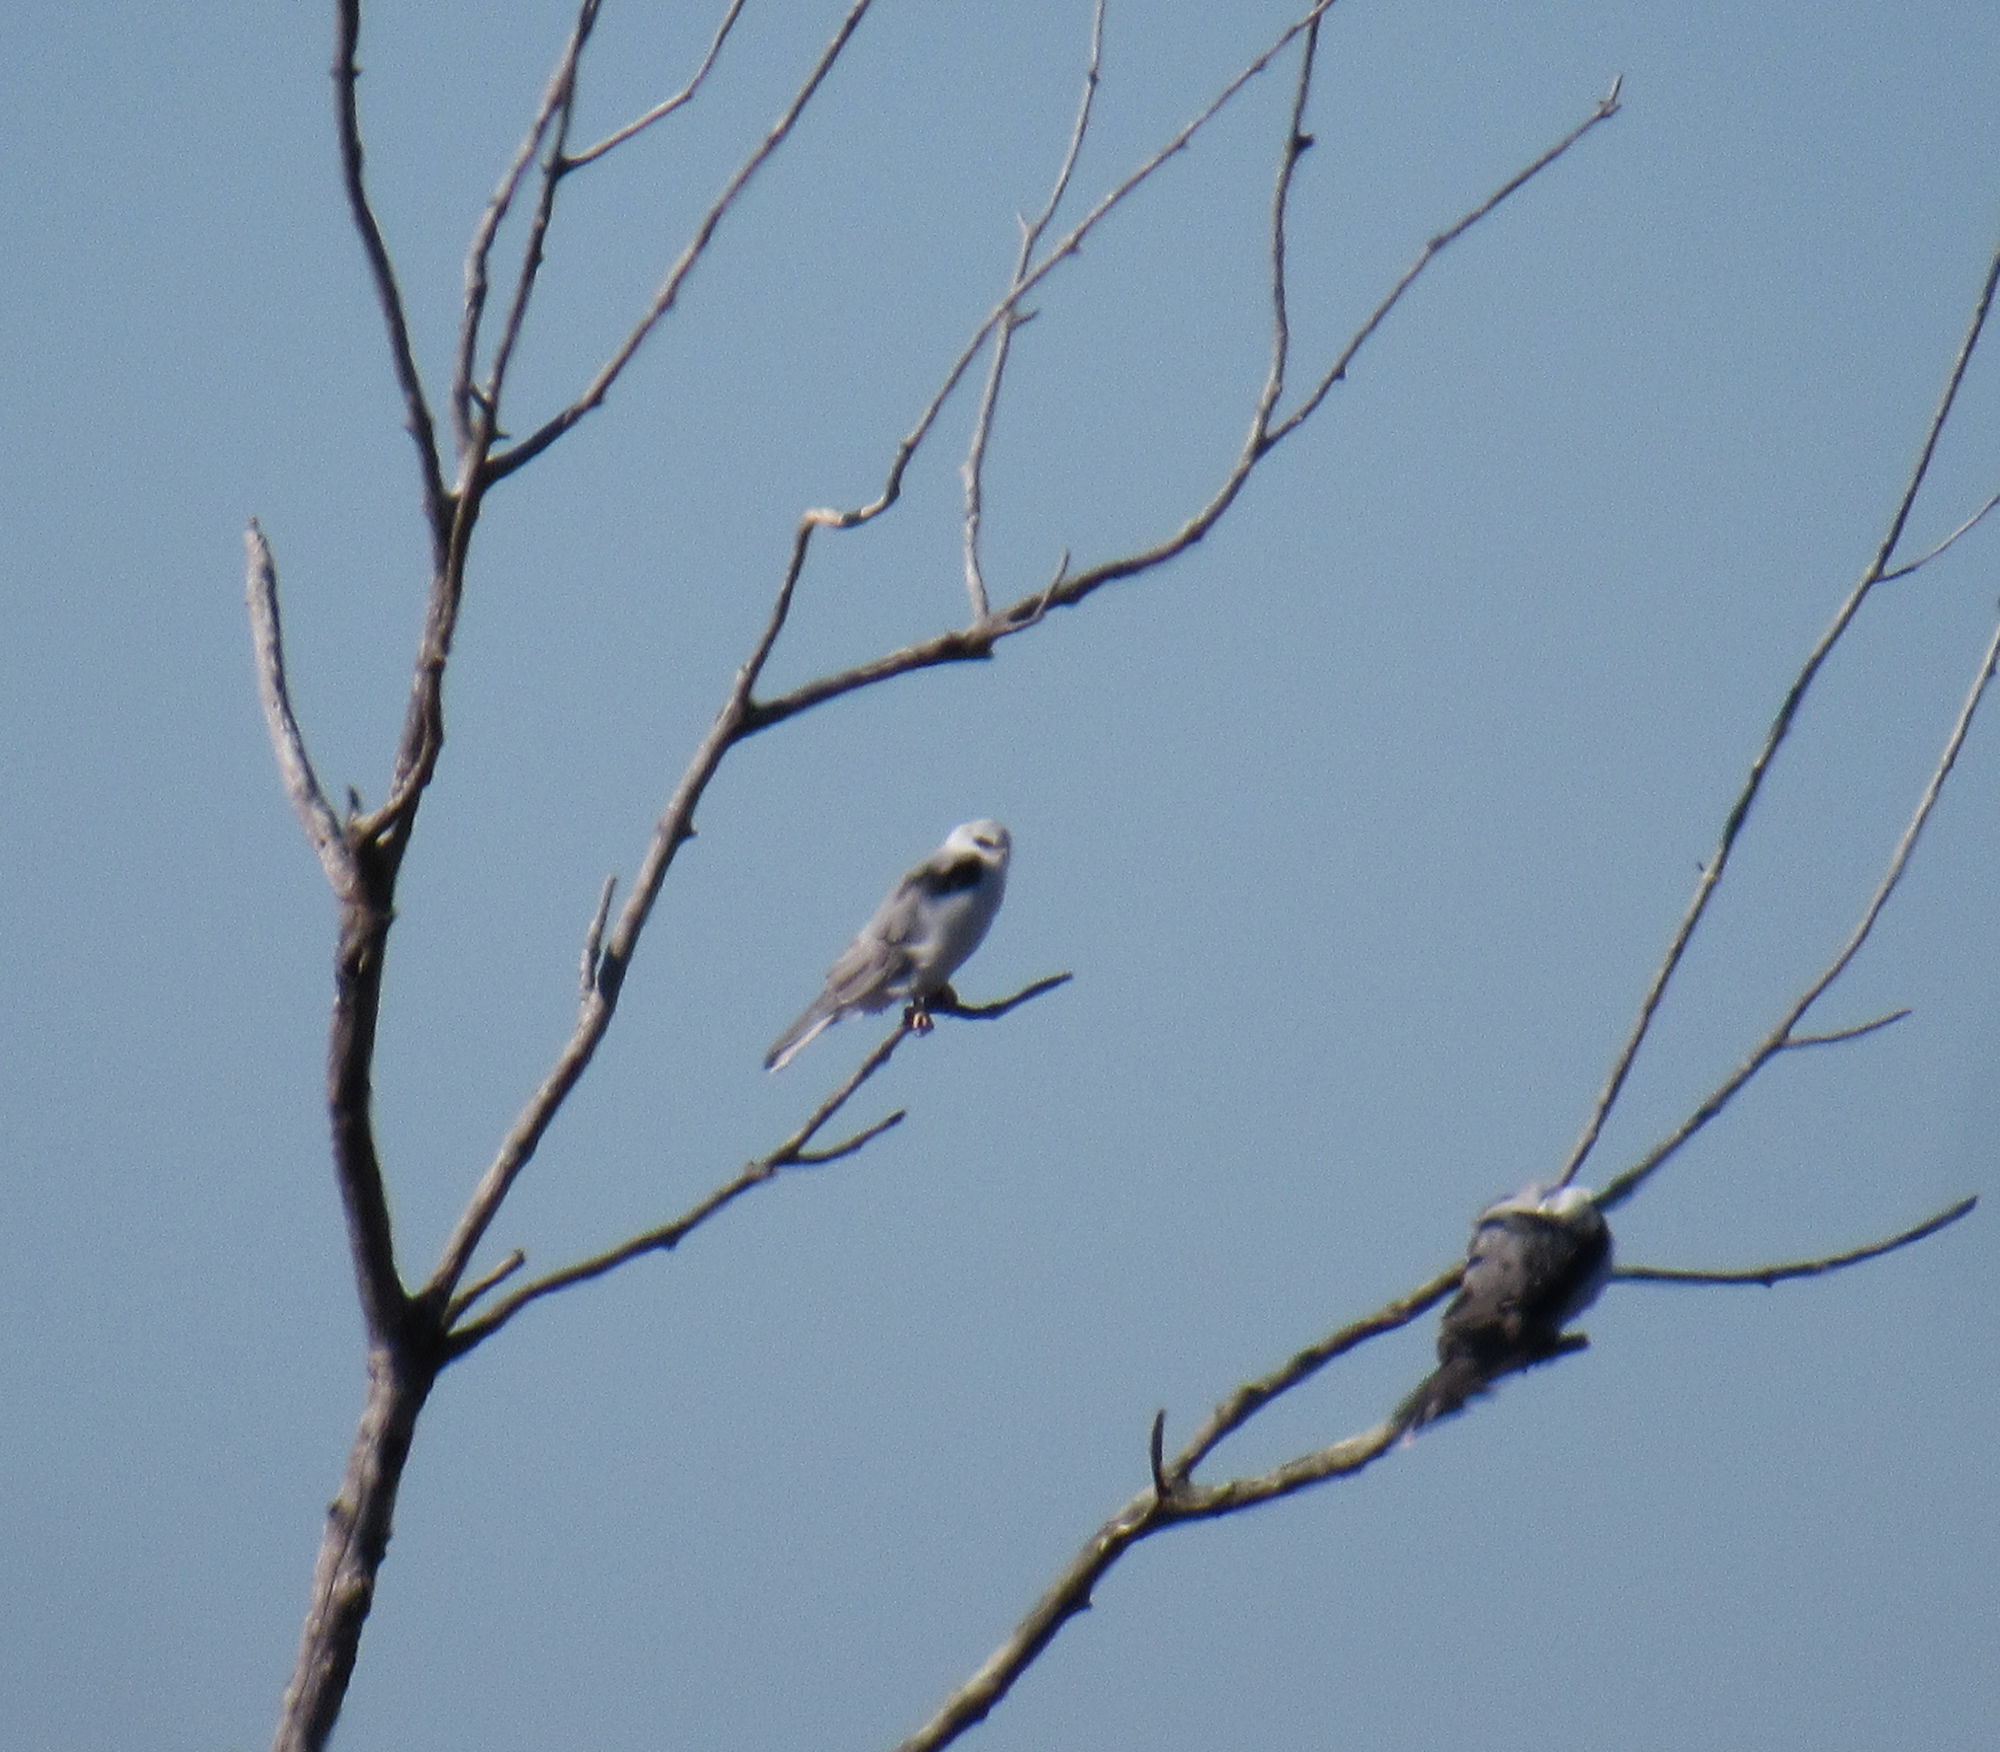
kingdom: Animalia
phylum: Chordata
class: Aves
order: Accipitriformes
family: Accipitridae
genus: Elanus
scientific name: Elanus leucurus
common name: White-tailed kite
